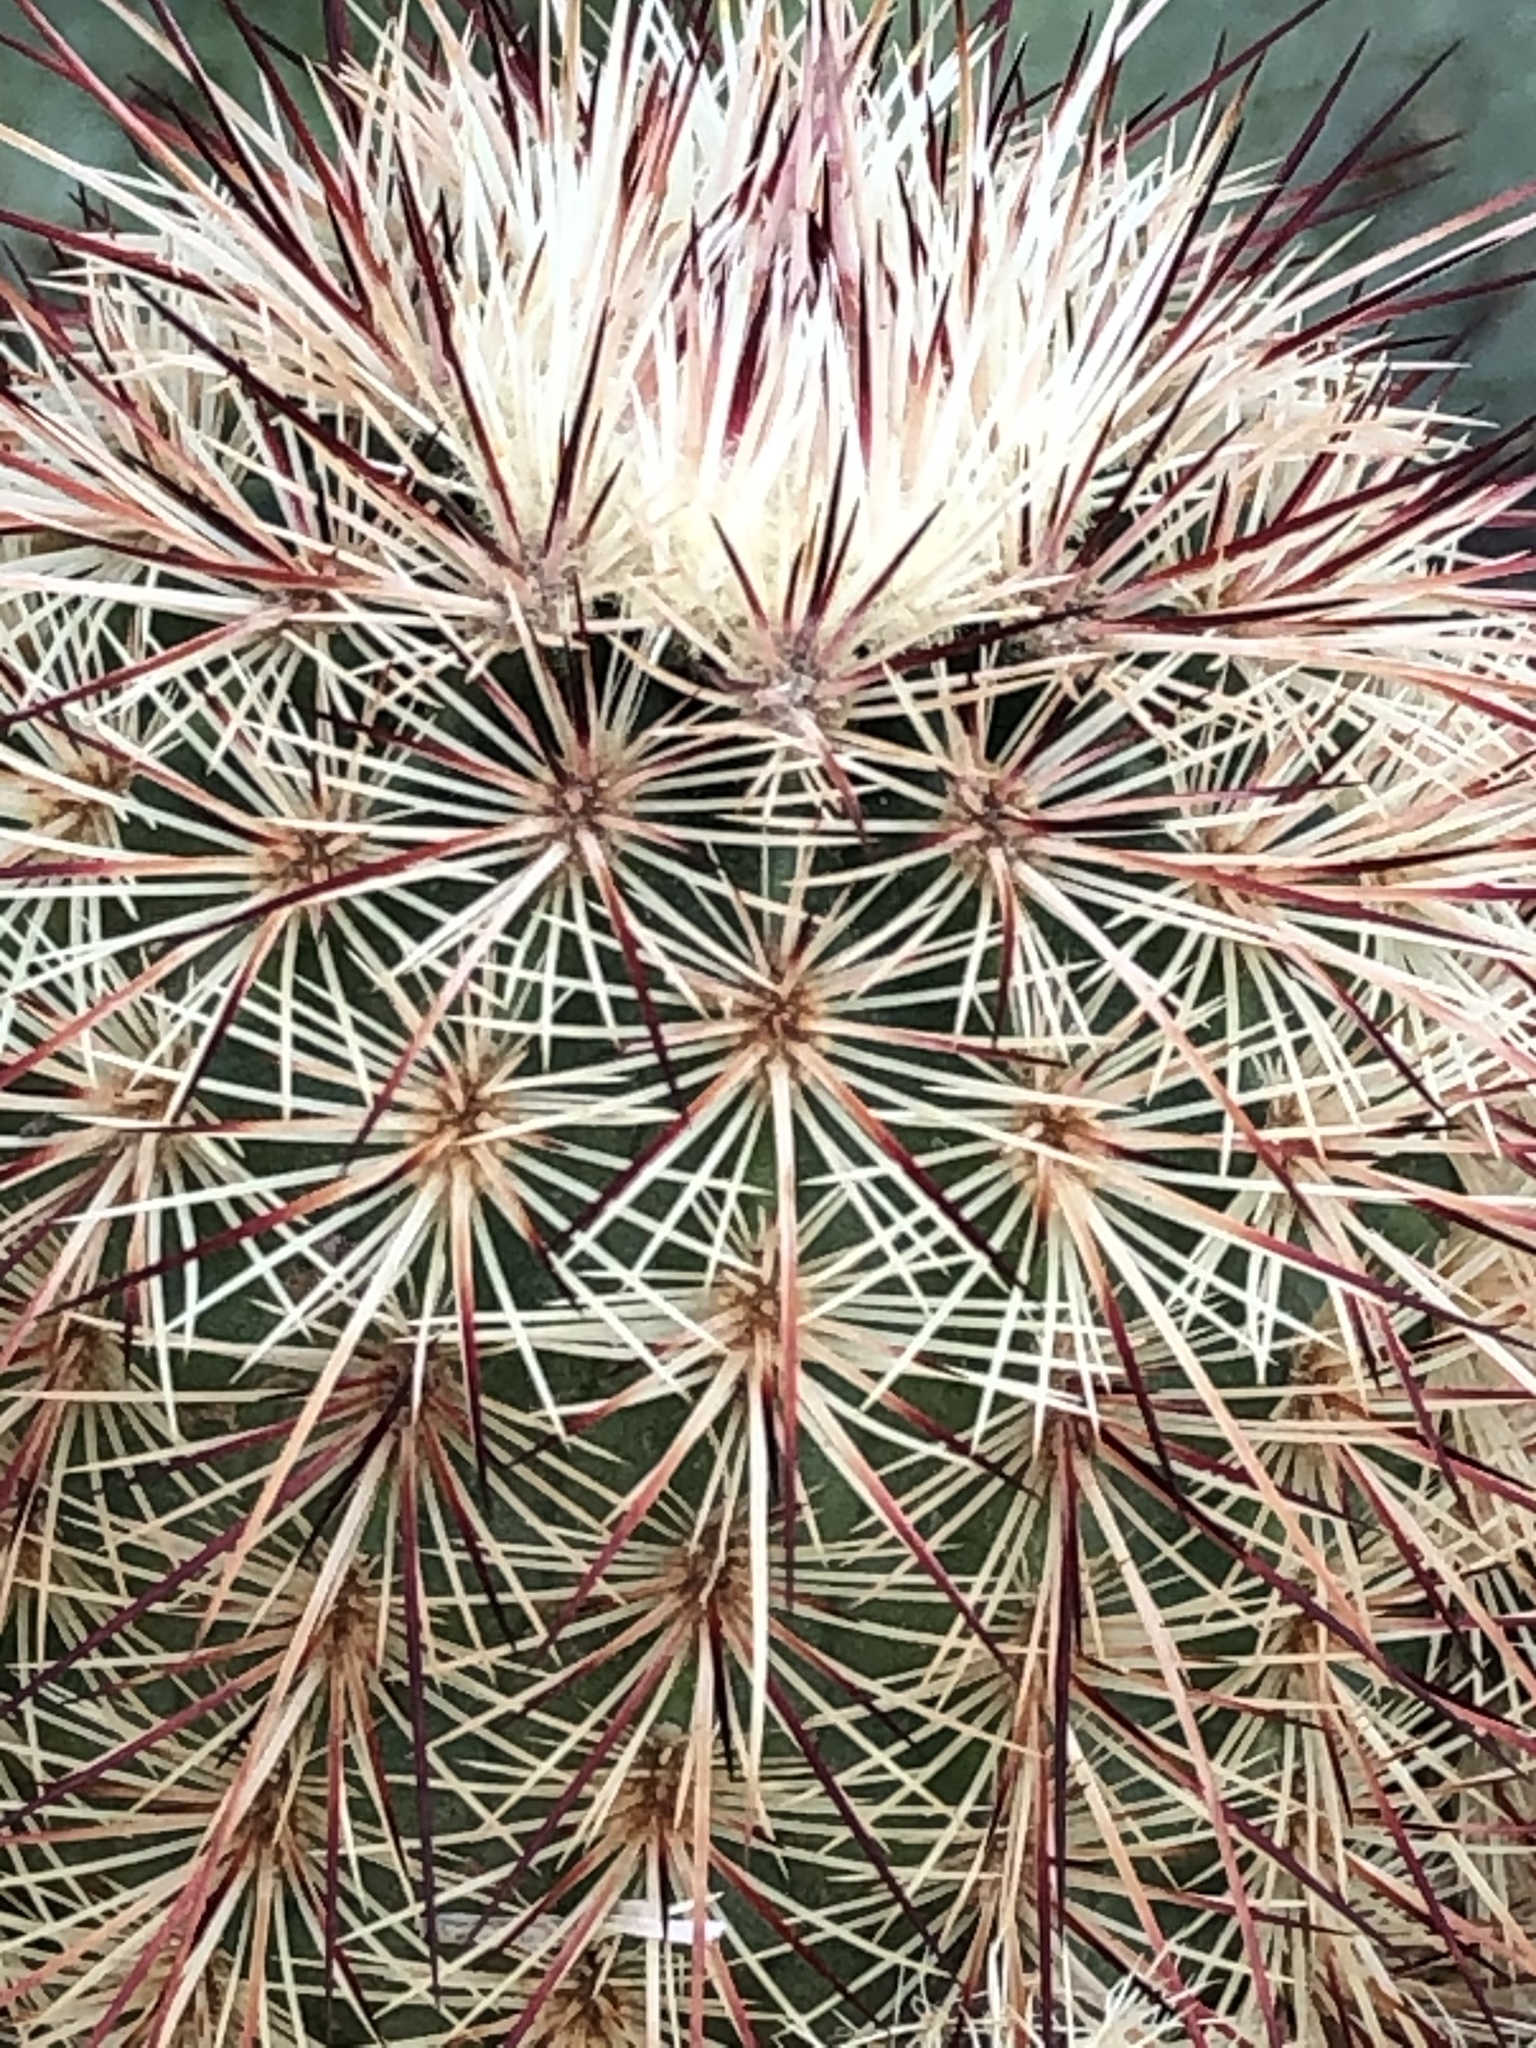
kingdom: Plantae
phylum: Tracheophyta
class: Magnoliopsida
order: Caryophyllales
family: Cactaceae
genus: Echinocereus
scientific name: Echinocereus russanthus
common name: Brownspine hedgehog cactus
